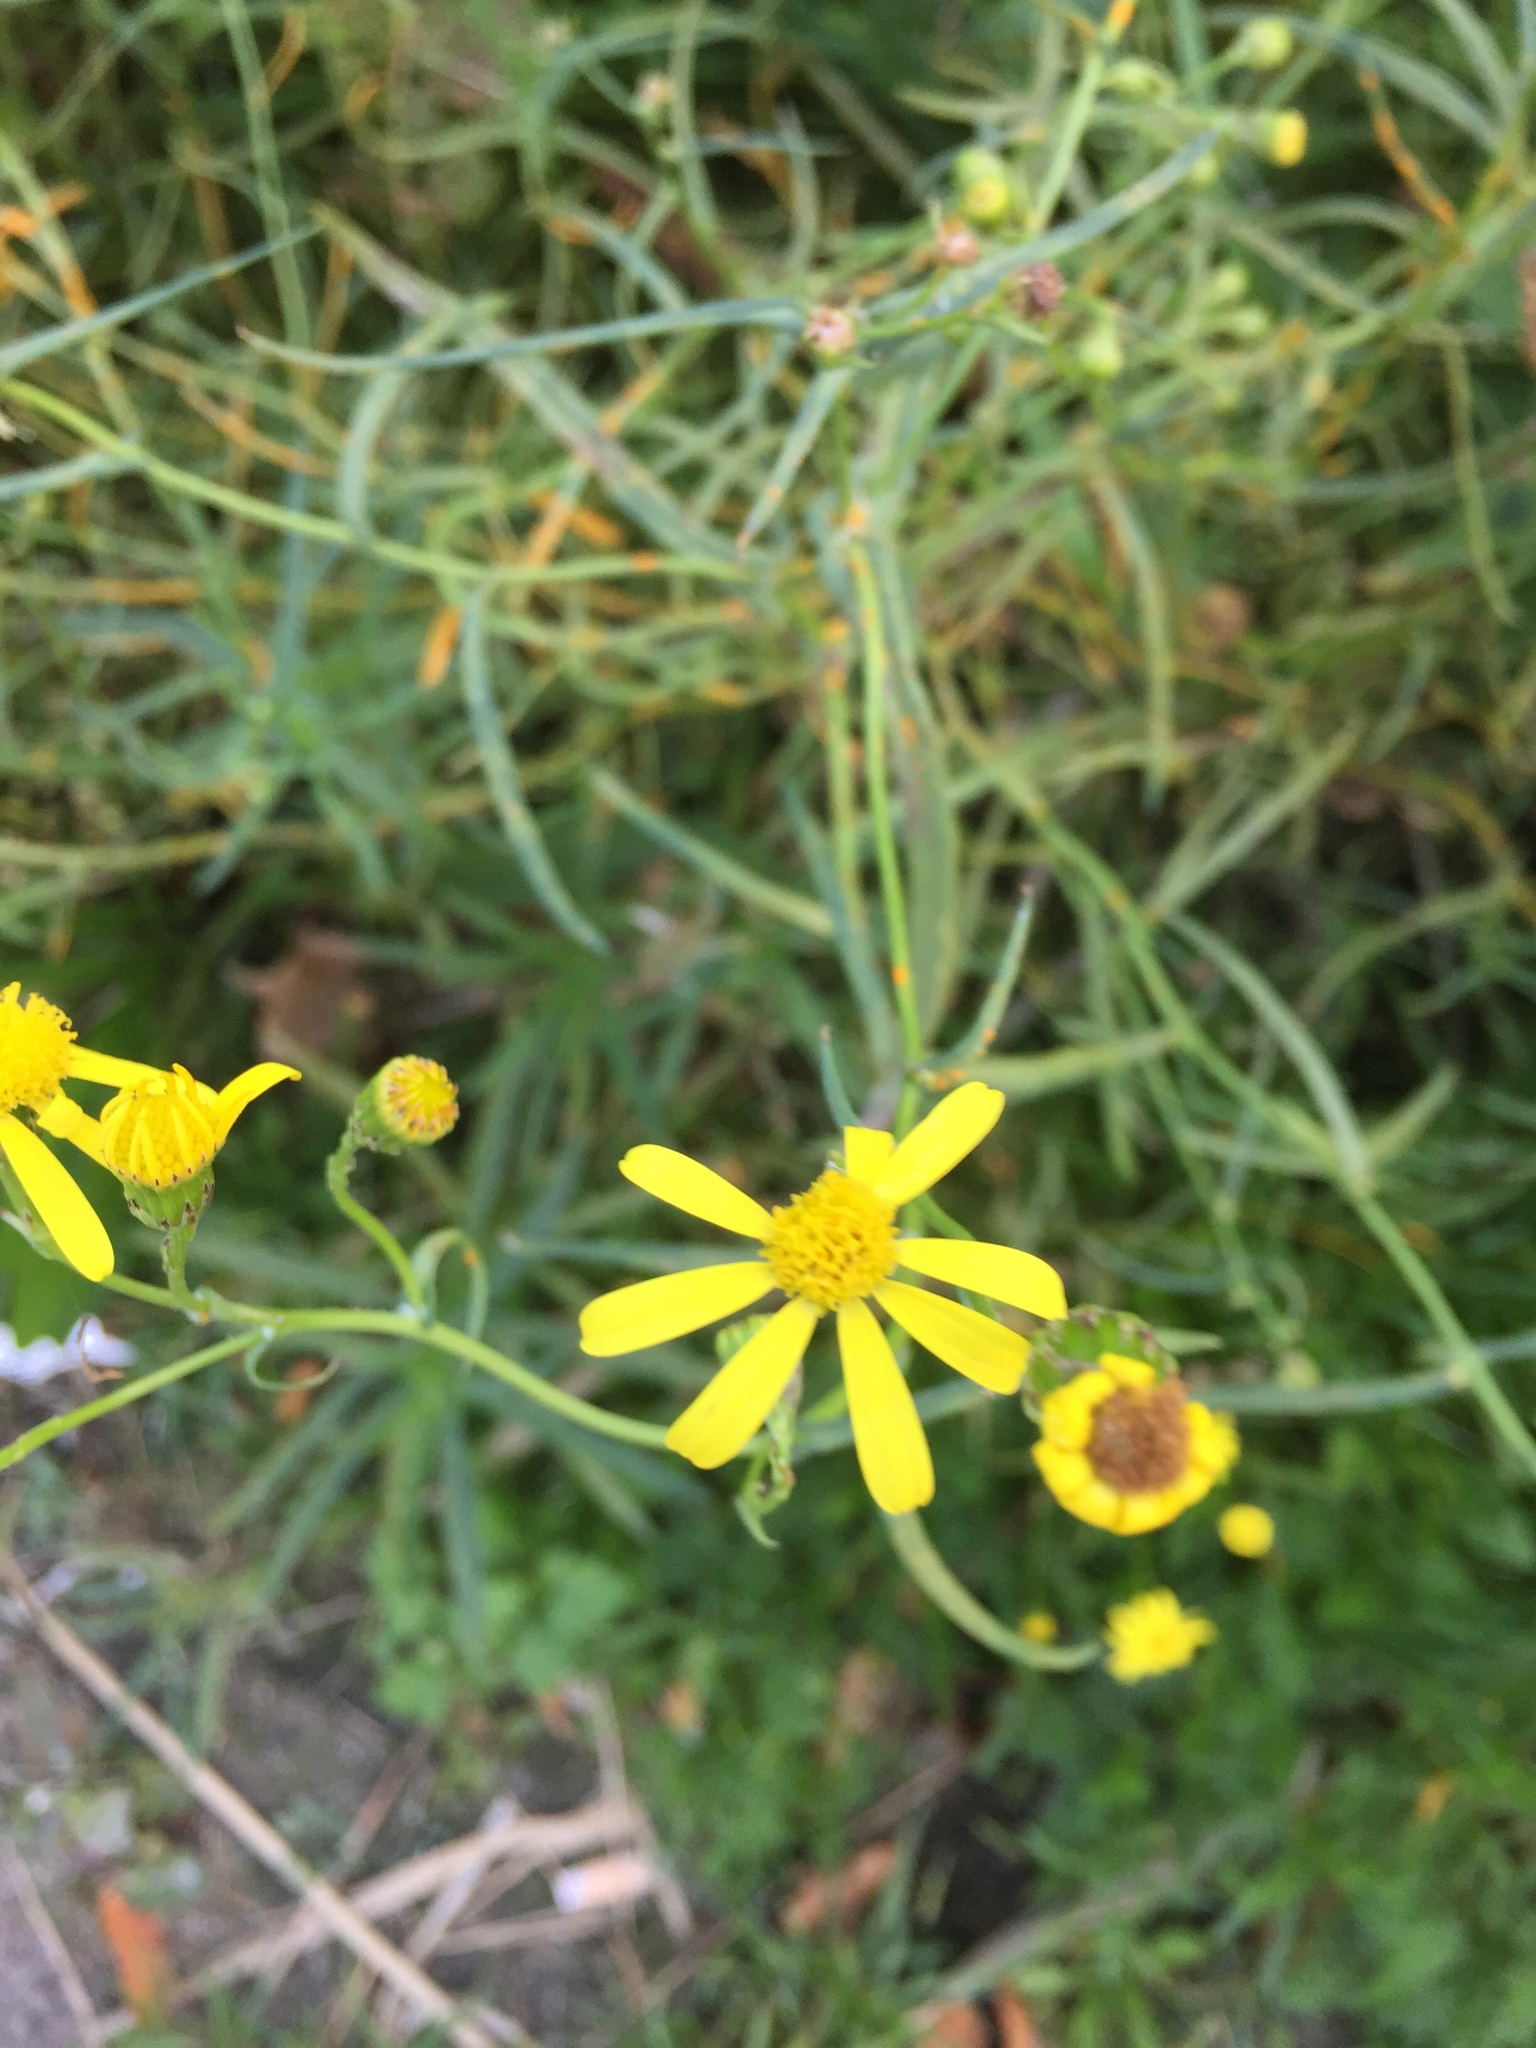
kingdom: Plantae
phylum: Tracheophyta
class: Magnoliopsida
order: Asterales
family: Asteraceae
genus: Senecio
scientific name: Senecio inaequidens
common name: Narrow-leaved ragwort
